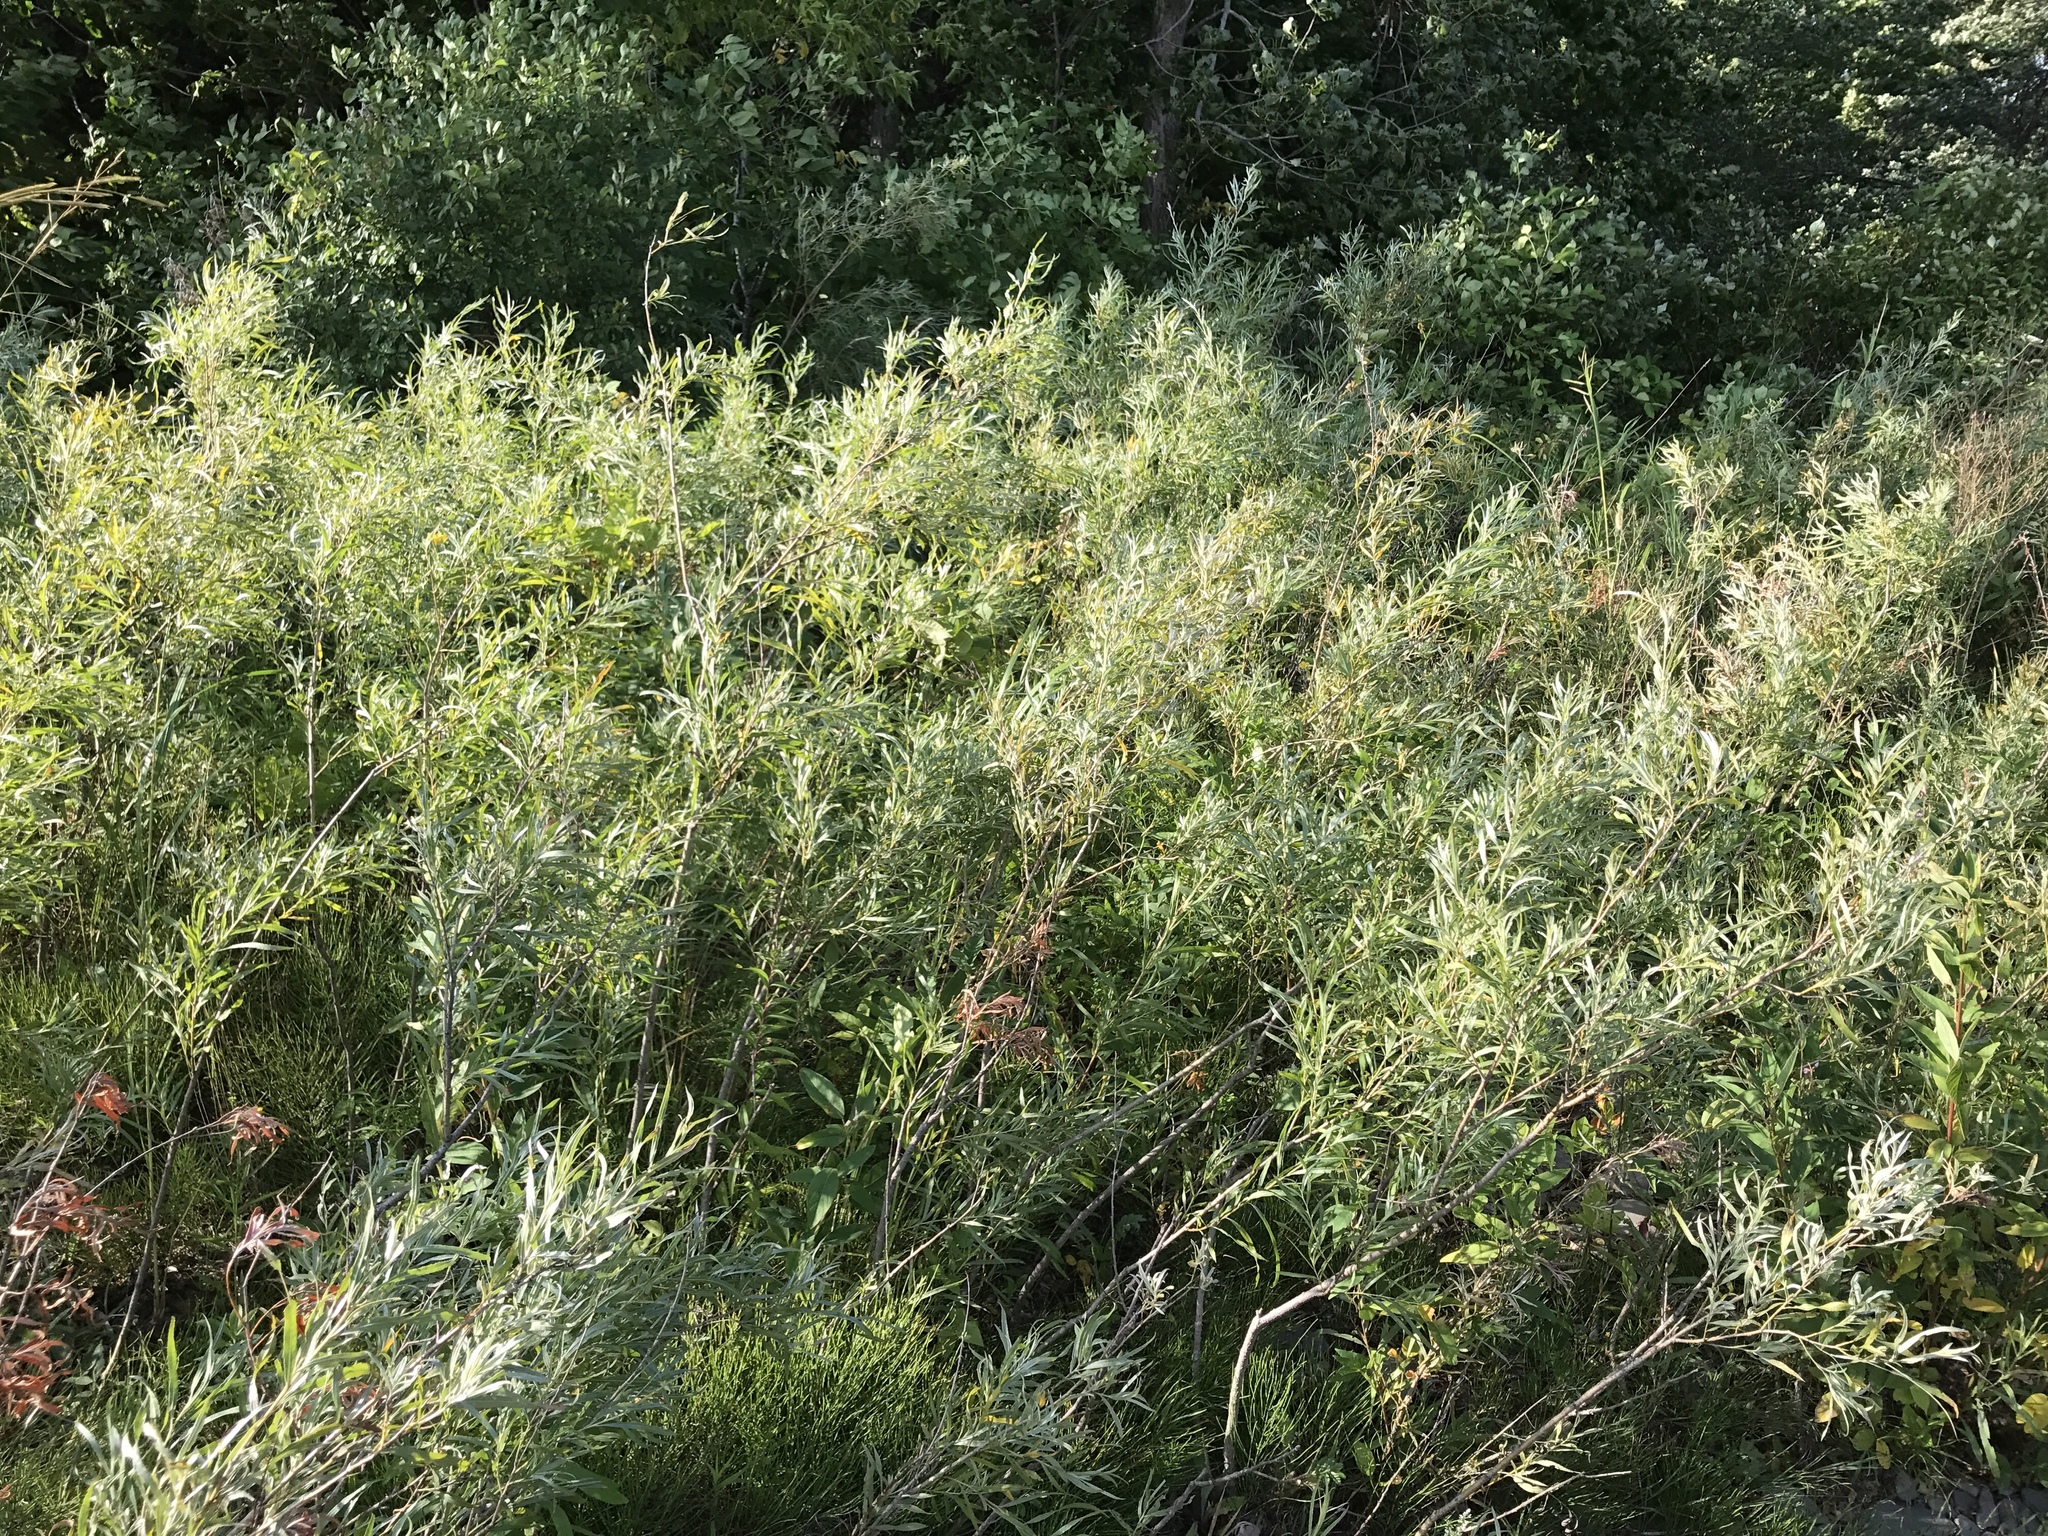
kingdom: Plantae
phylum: Tracheophyta
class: Magnoliopsida
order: Malpighiales
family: Salicaceae
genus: Salix
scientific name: Salix interior
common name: Sandbar willow
